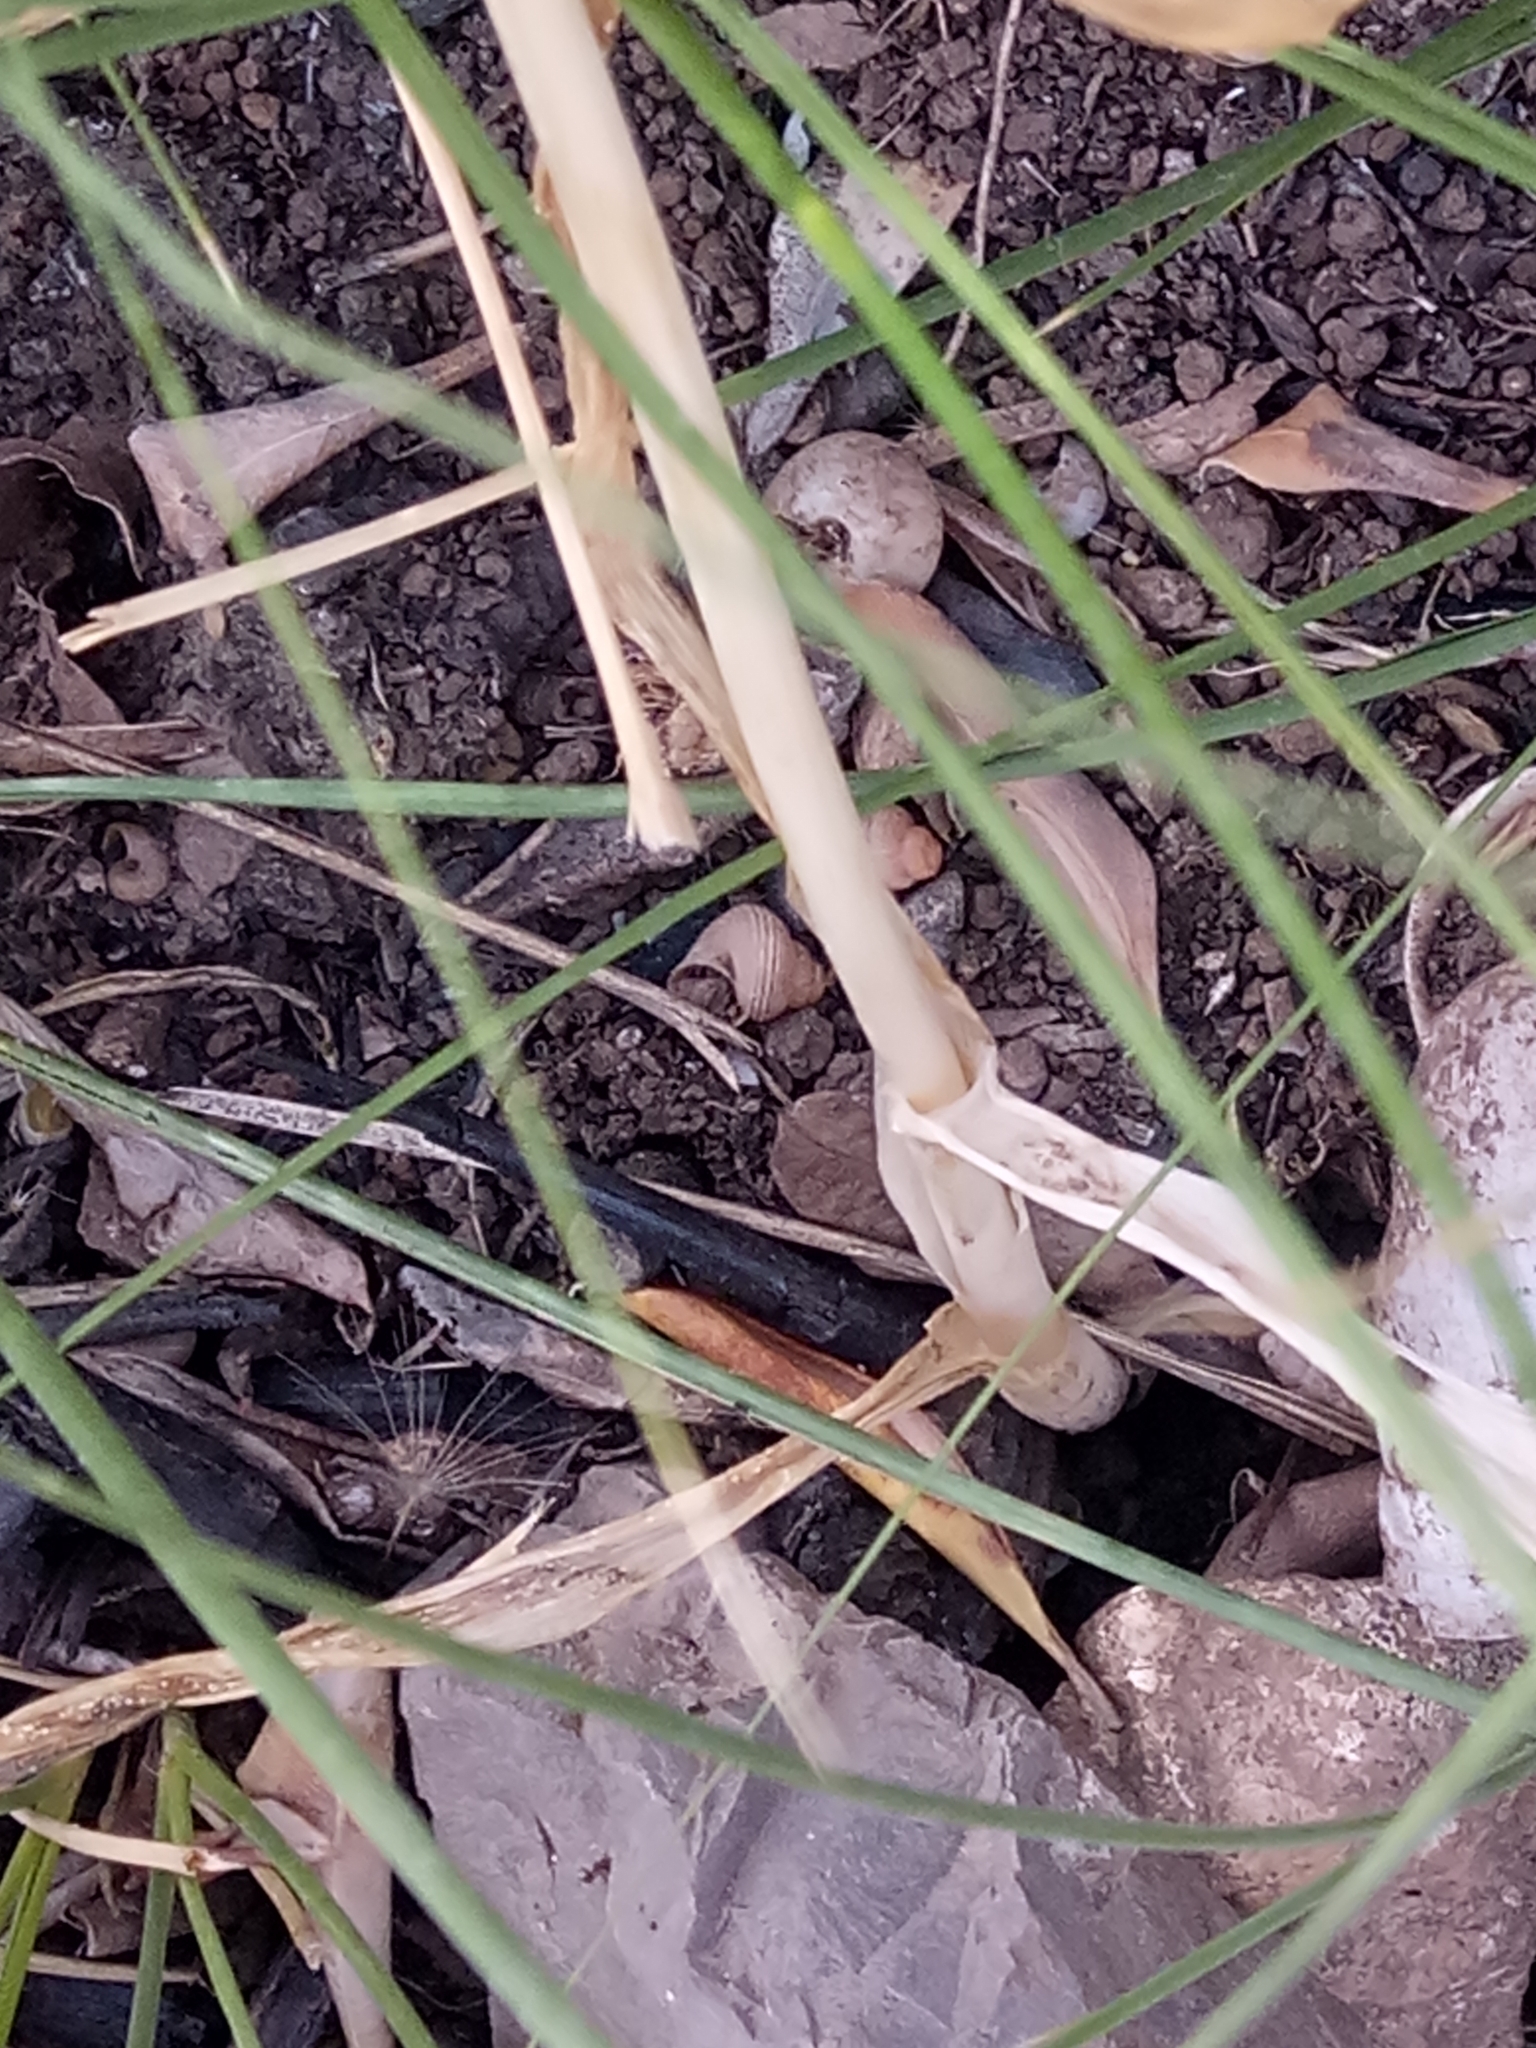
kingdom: Plantae
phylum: Tracheophyta
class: Liliopsida
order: Asparagales
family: Amaryllidaceae
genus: Allium
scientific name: Allium roseum
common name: Rosy garlic
